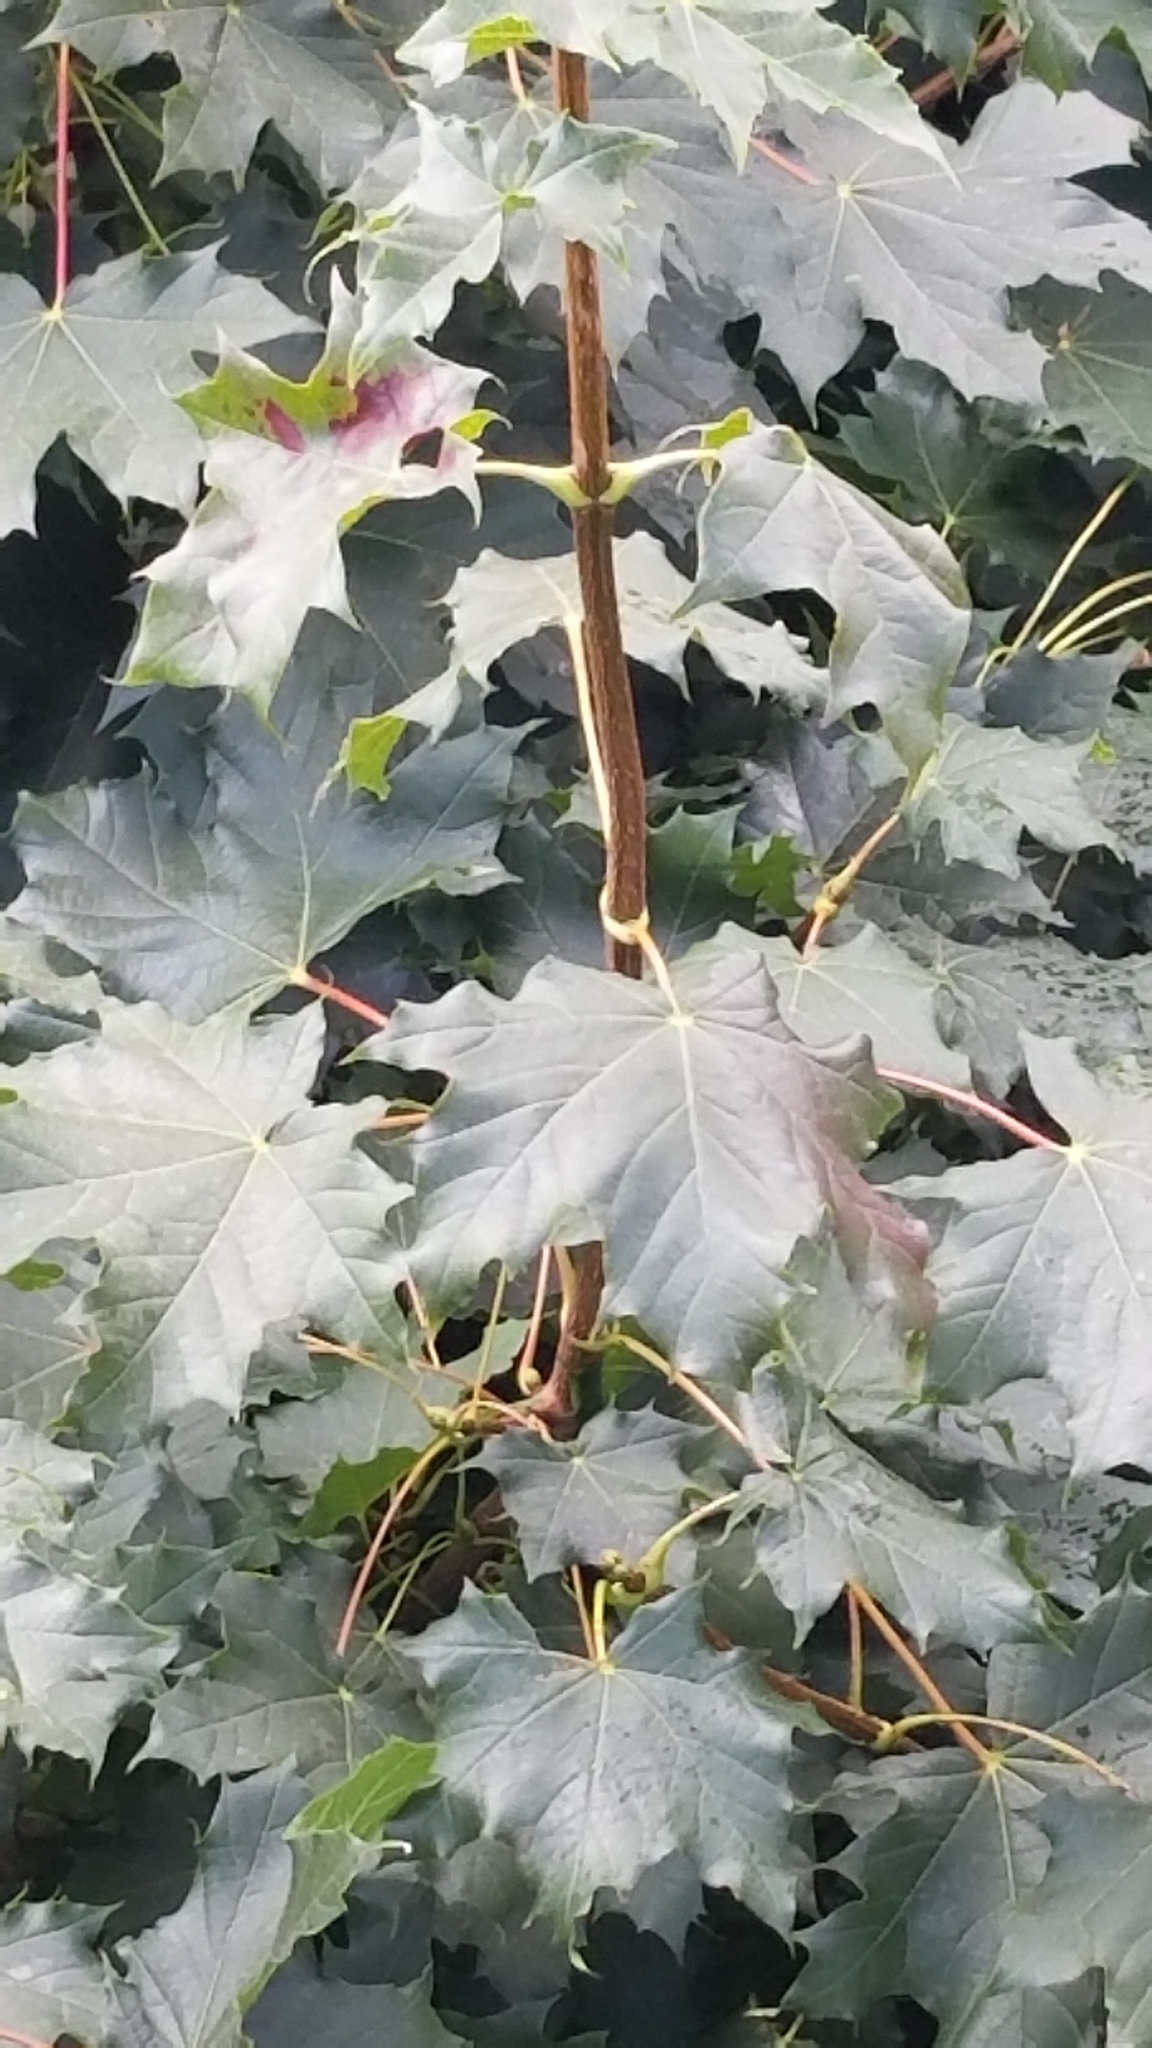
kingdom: Plantae
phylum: Tracheophyta
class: Magnoliopsida
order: Sapindales
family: Sapindaceae
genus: Acer
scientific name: Acer platanoides
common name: Norway maple
